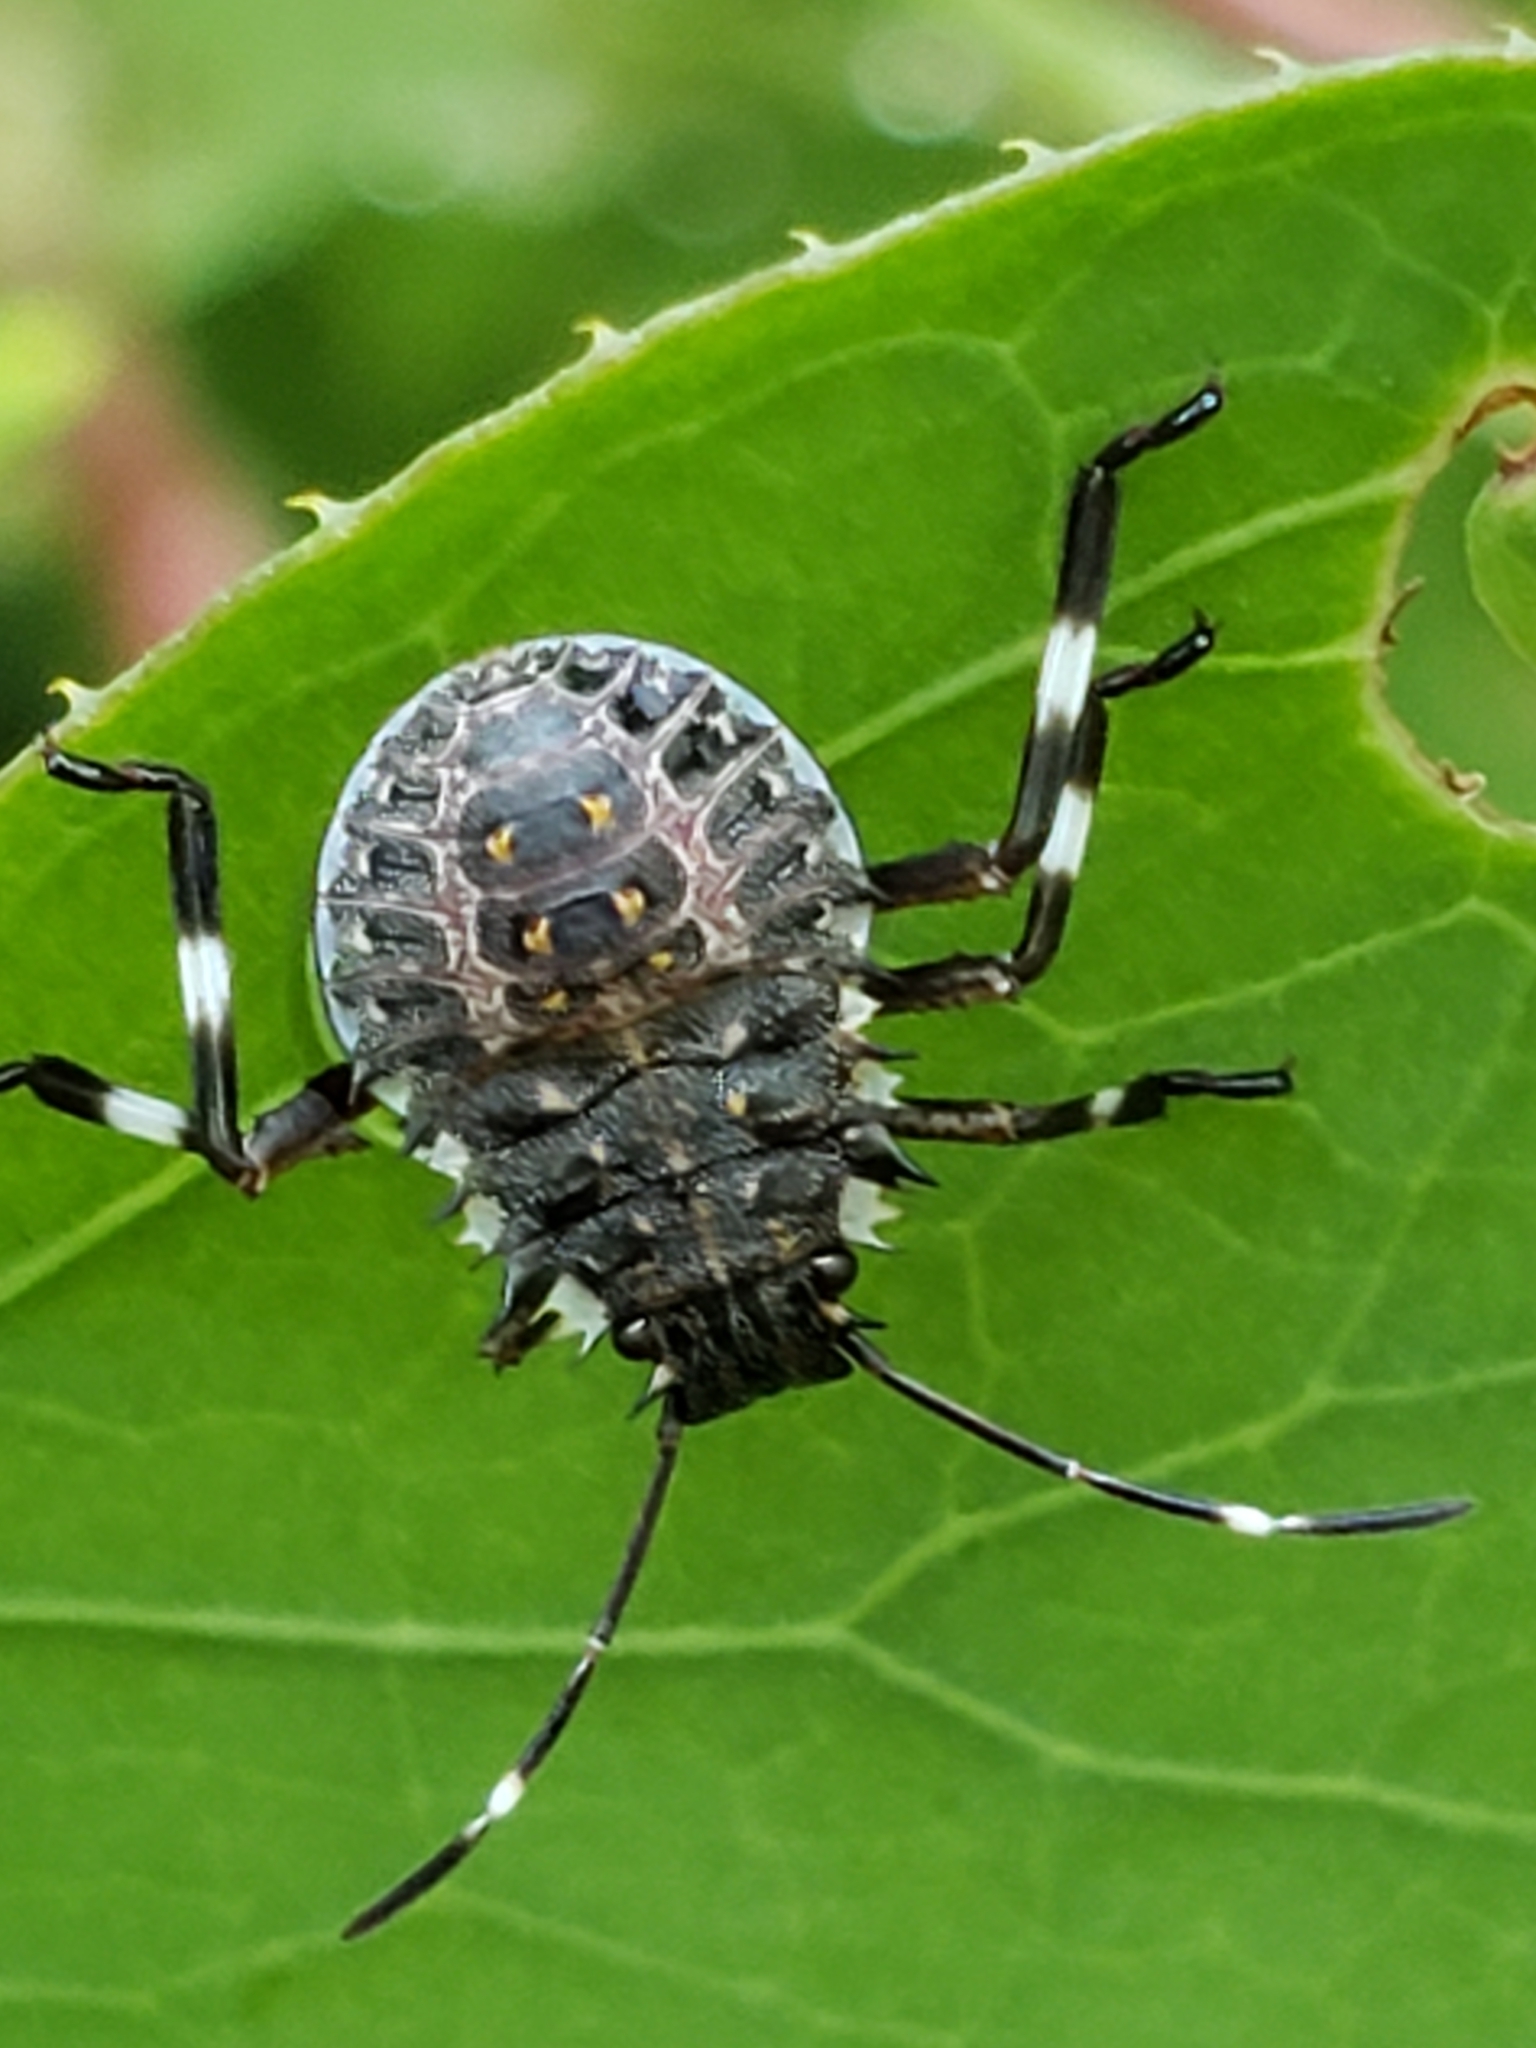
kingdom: Animalia
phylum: Arthropoda
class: Insecta
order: Hemiptera
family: Pentatomidae
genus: Halyomorpha
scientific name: Halyomorpha halys
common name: Brown marmorated stink bug
